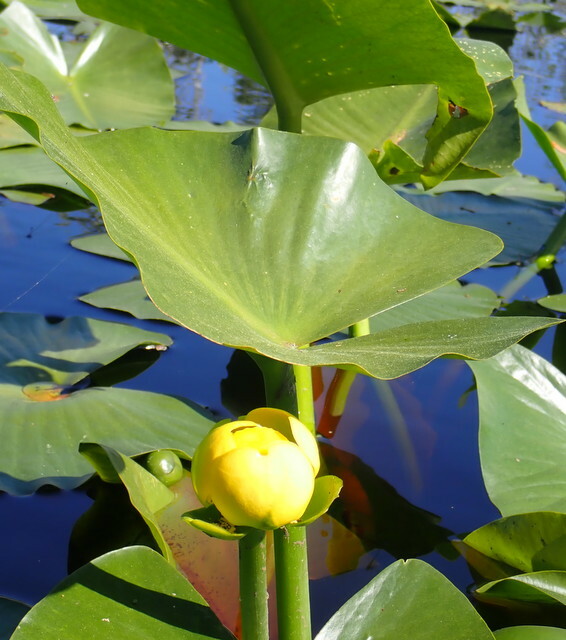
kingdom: Plantae
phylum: Tracheophyta
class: Magnoliopsida
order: Nymphaeales
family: Nymphaeaceae
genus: Nuphar
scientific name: Nuphar advena
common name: Spatter-dock
